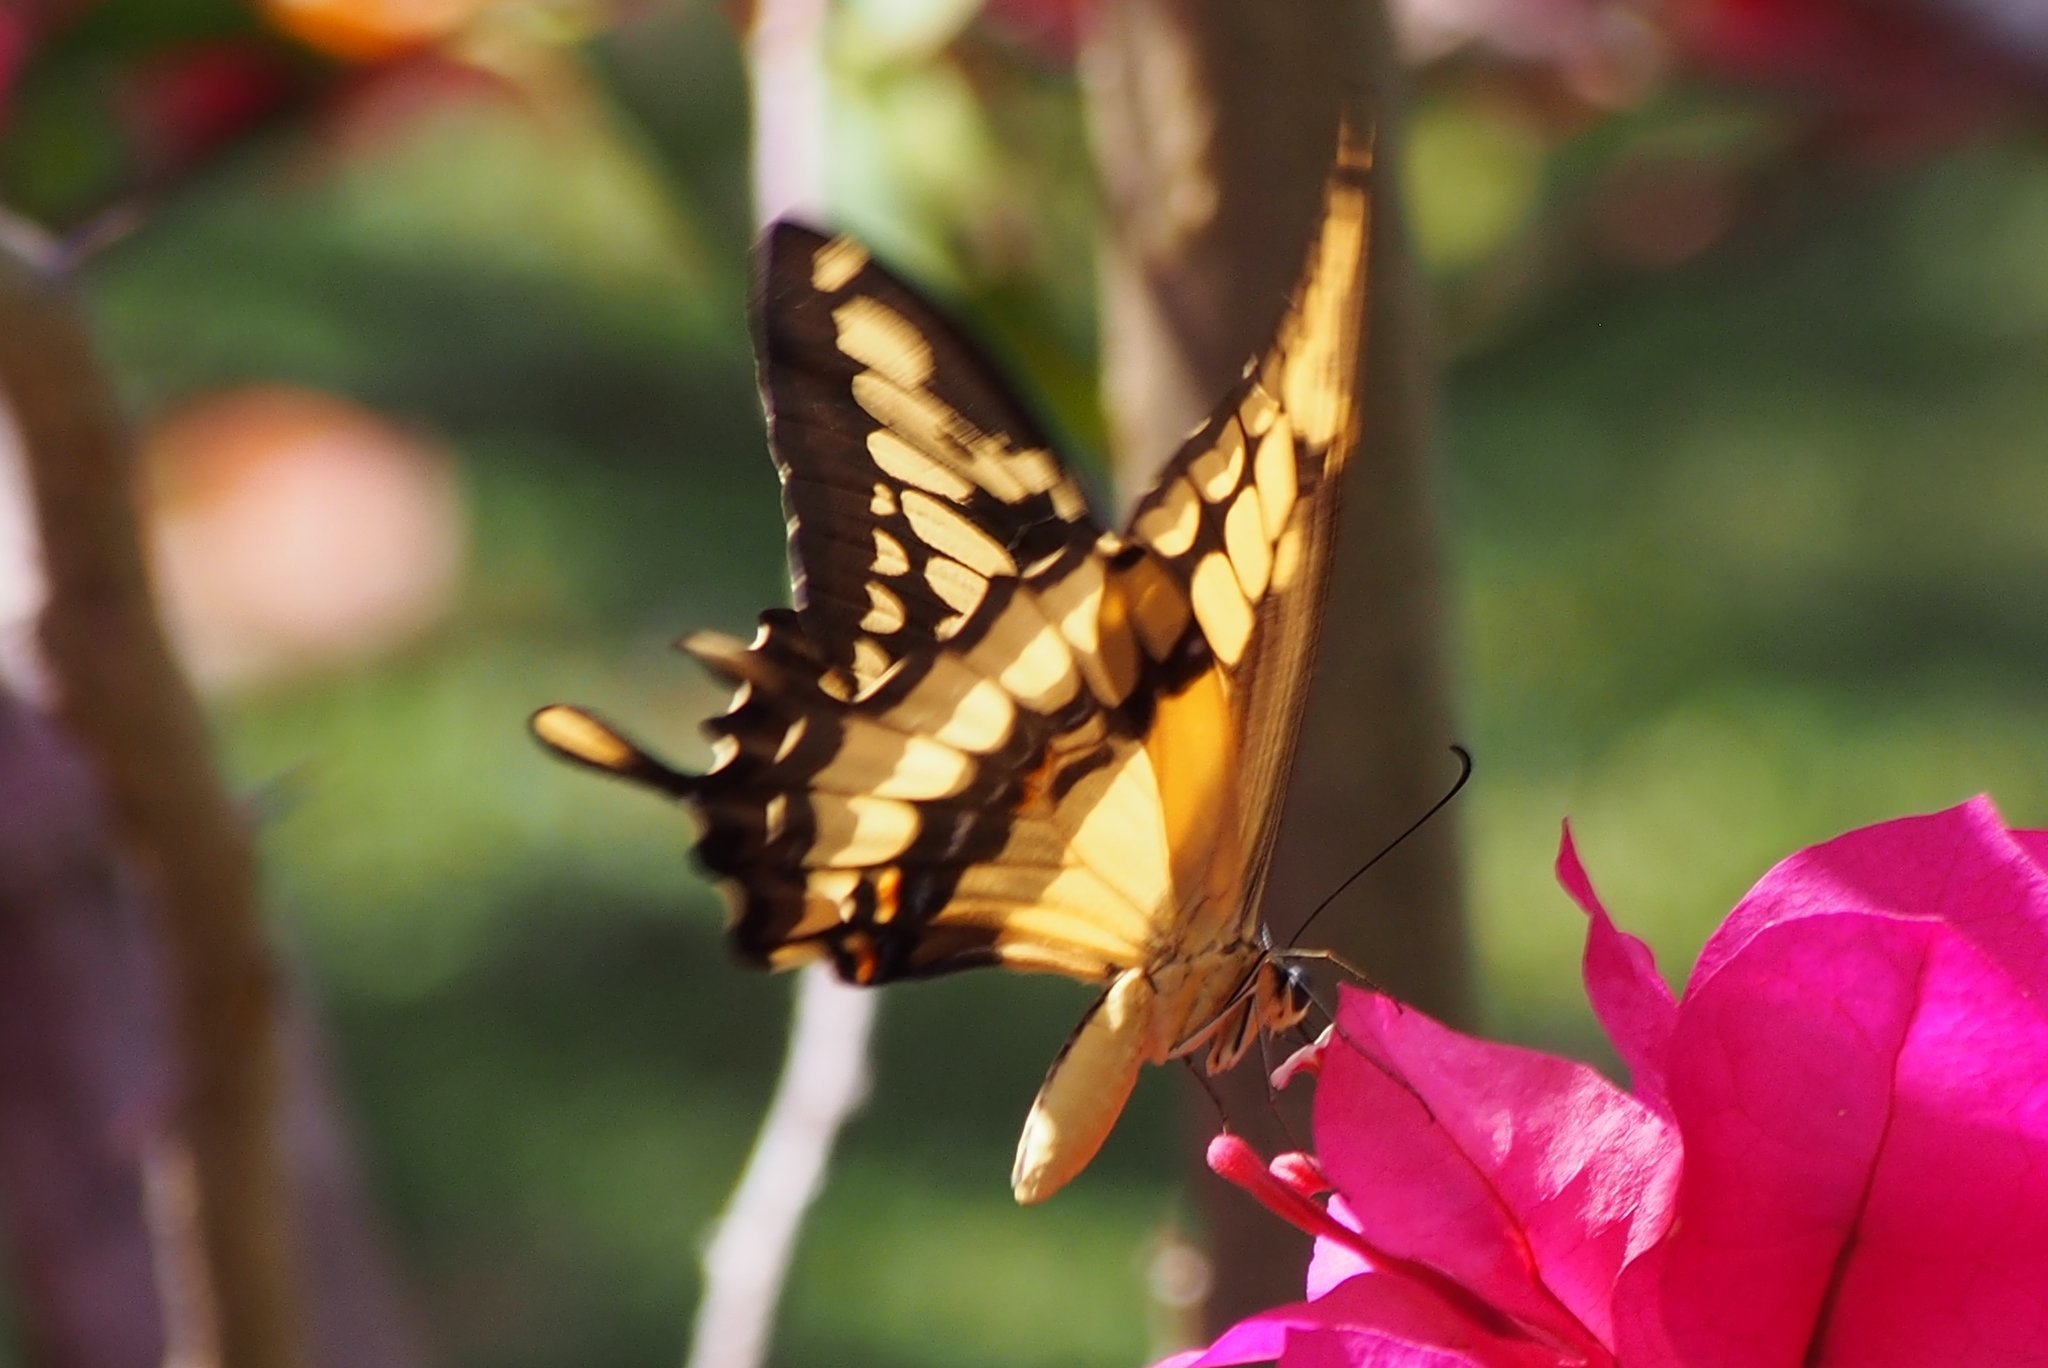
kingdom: Animalia
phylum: Arthropoda
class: Insecta
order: Lepidoptera
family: Papilionidae
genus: Papilio
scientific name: Papilio thoas
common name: King swallowtail
